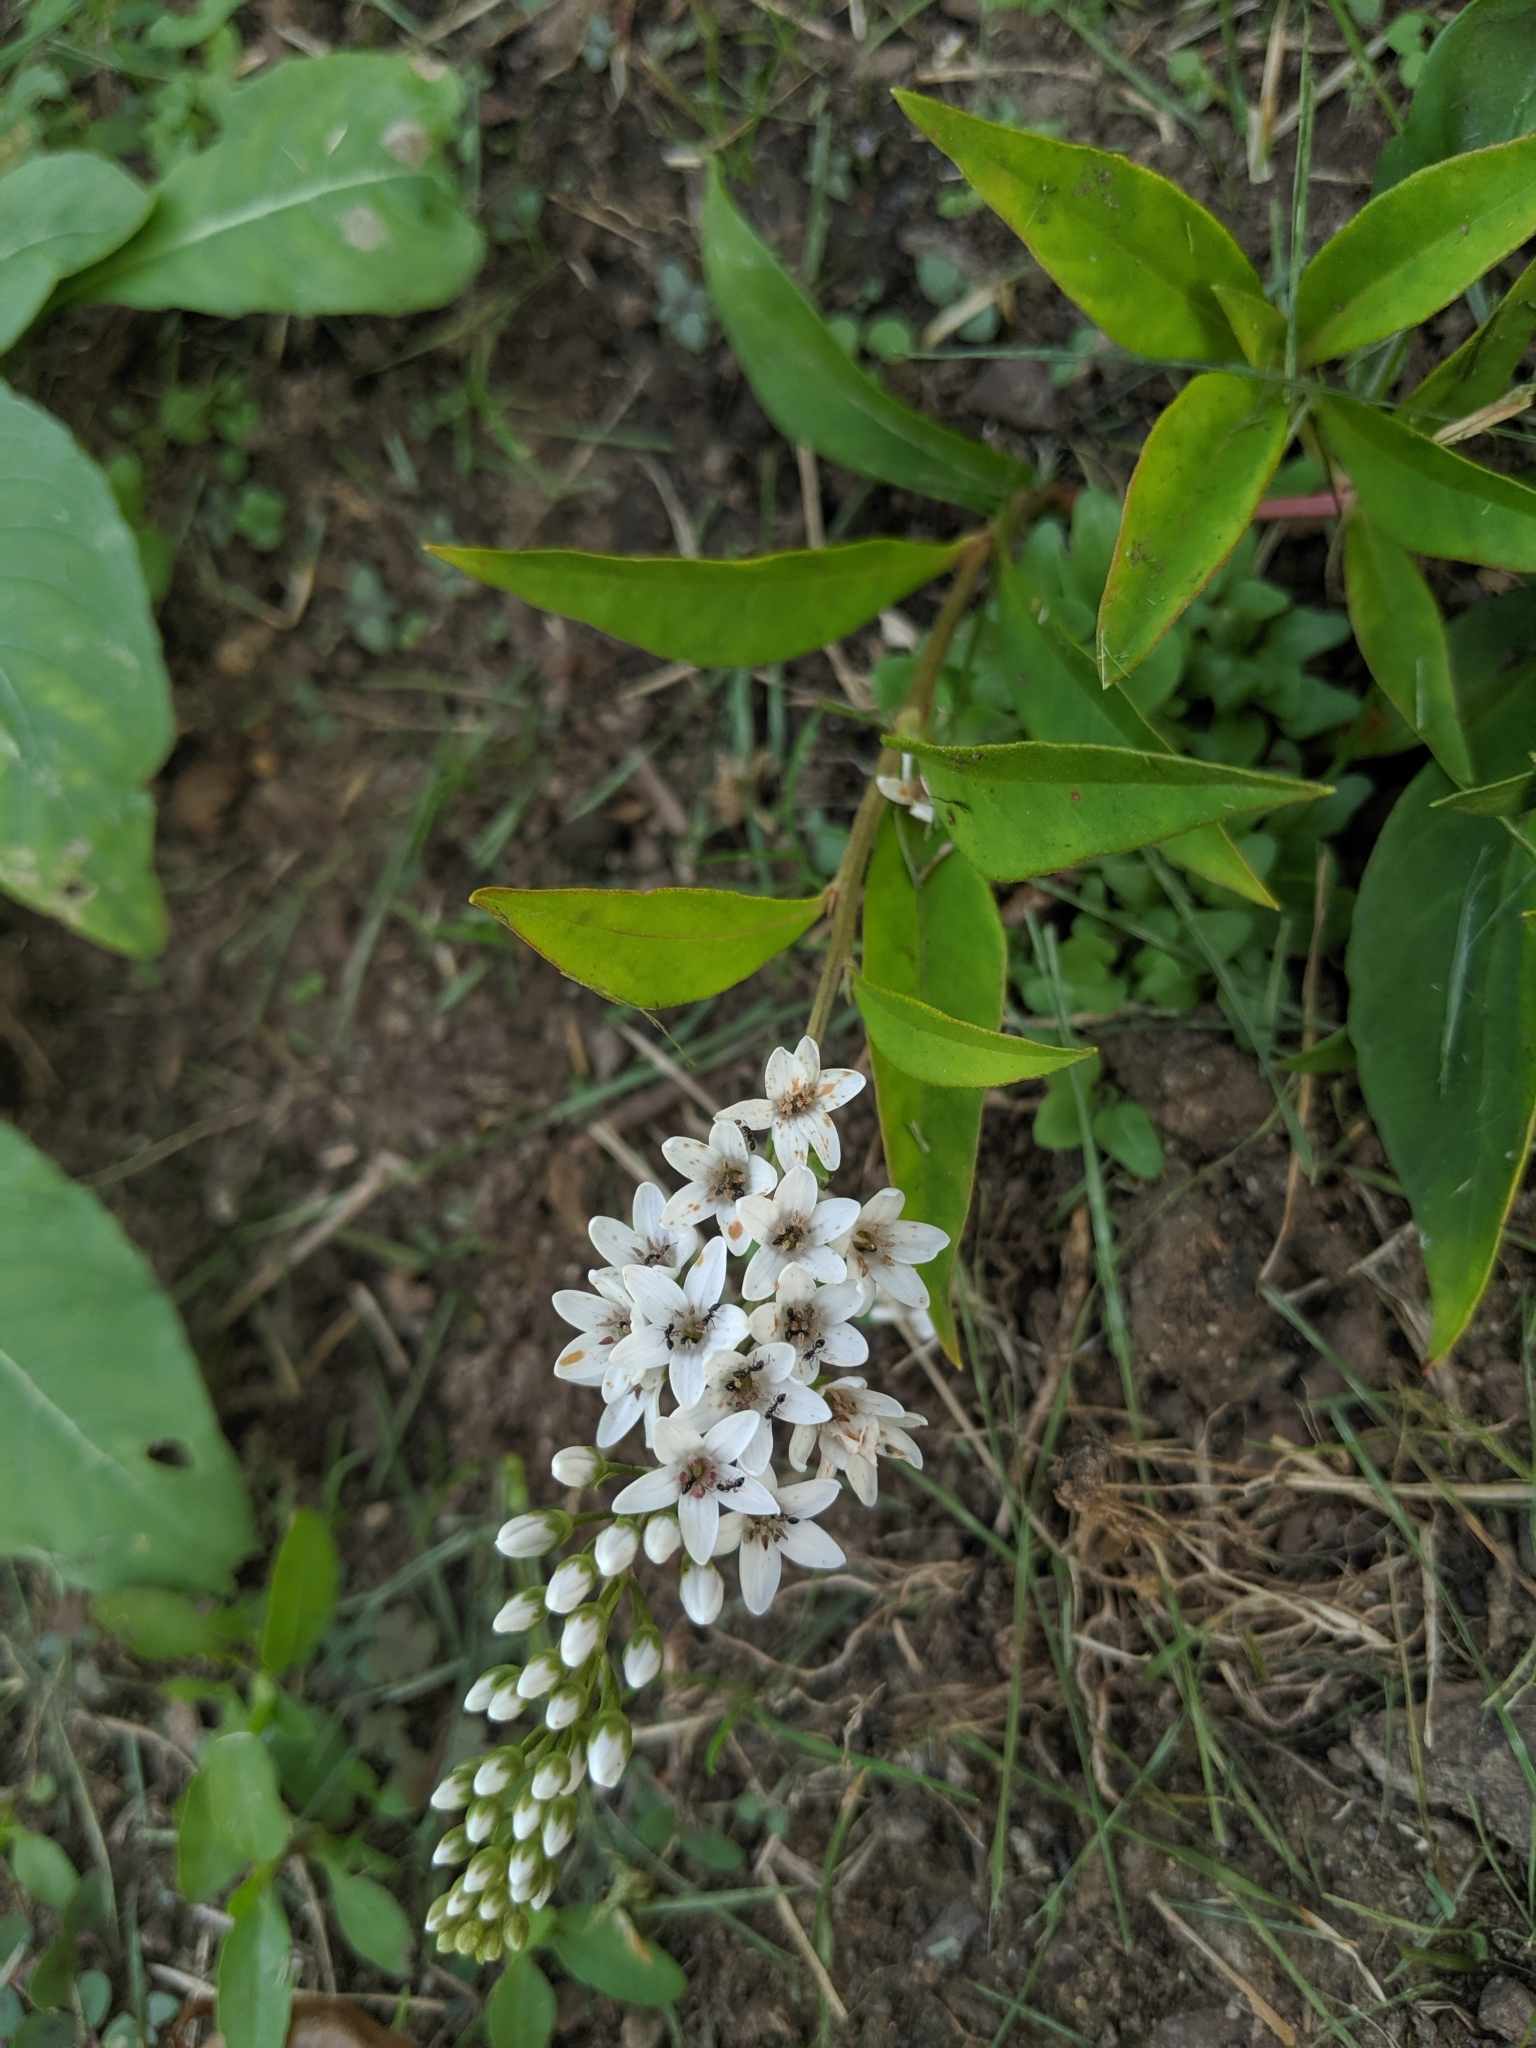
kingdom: Plantae
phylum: Tracheophyta
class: Magnoliopsida
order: Ericales
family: Primulaceae
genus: Lysimachia
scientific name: Lysimachia clethroides
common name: Gooseneck loosestrife
